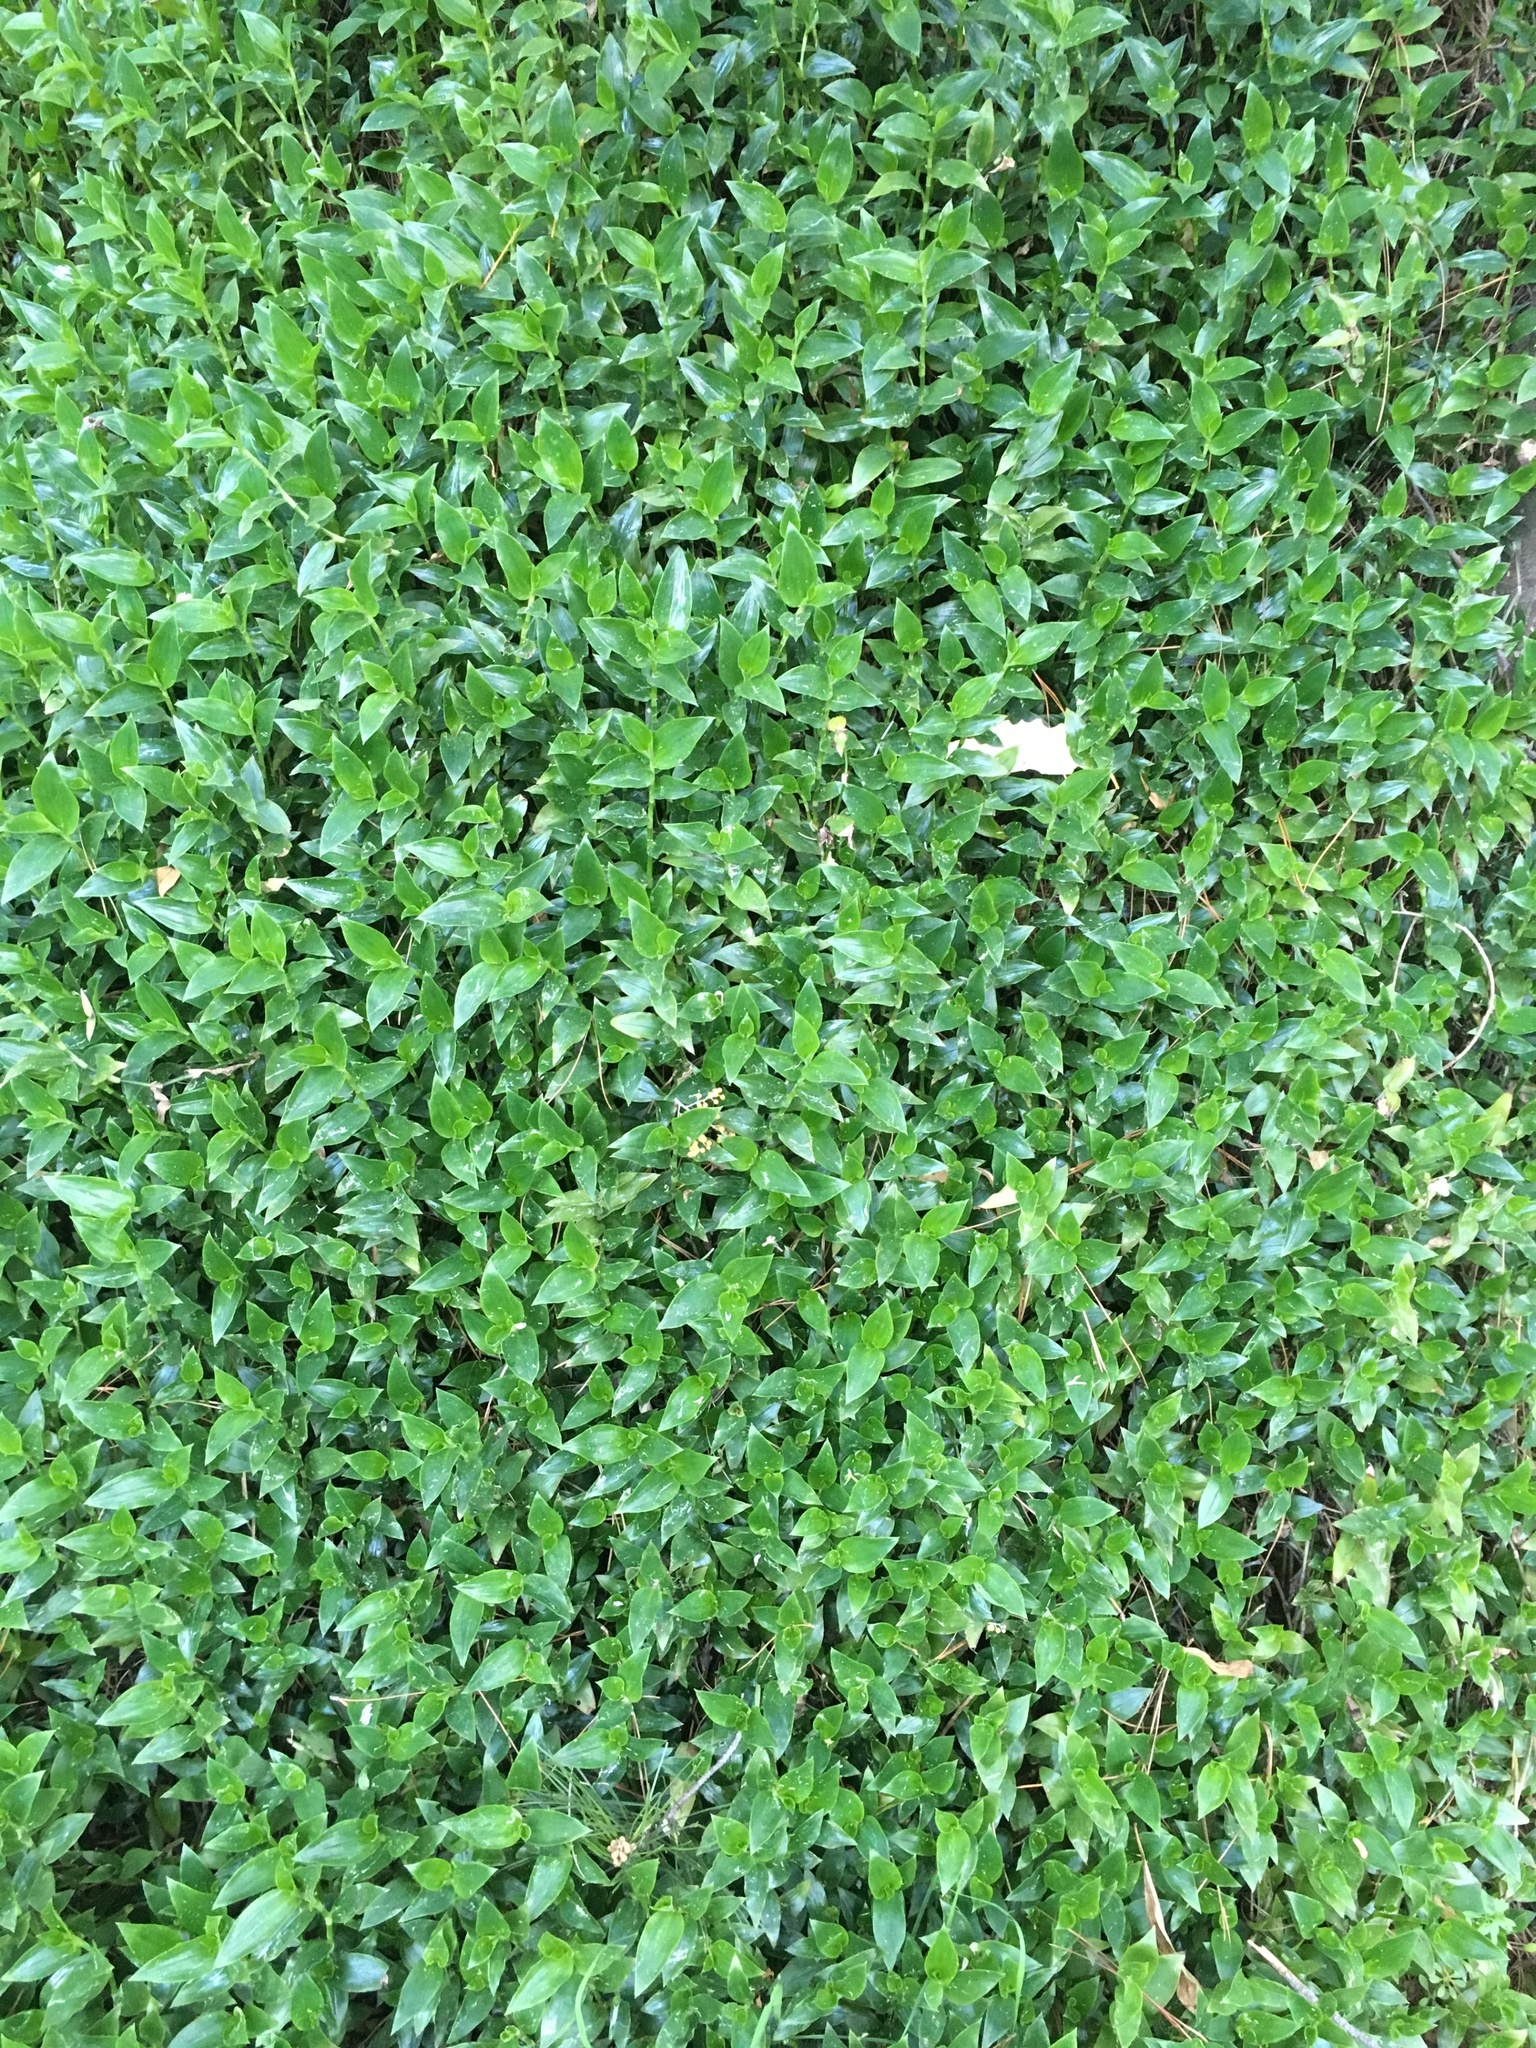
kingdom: Plantae
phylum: Tracheophyta
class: Liliopsida
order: Commelinales
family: Commelinaceae
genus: Tradescantia
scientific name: Tradescantia fluminensis
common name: Wandering-jew
